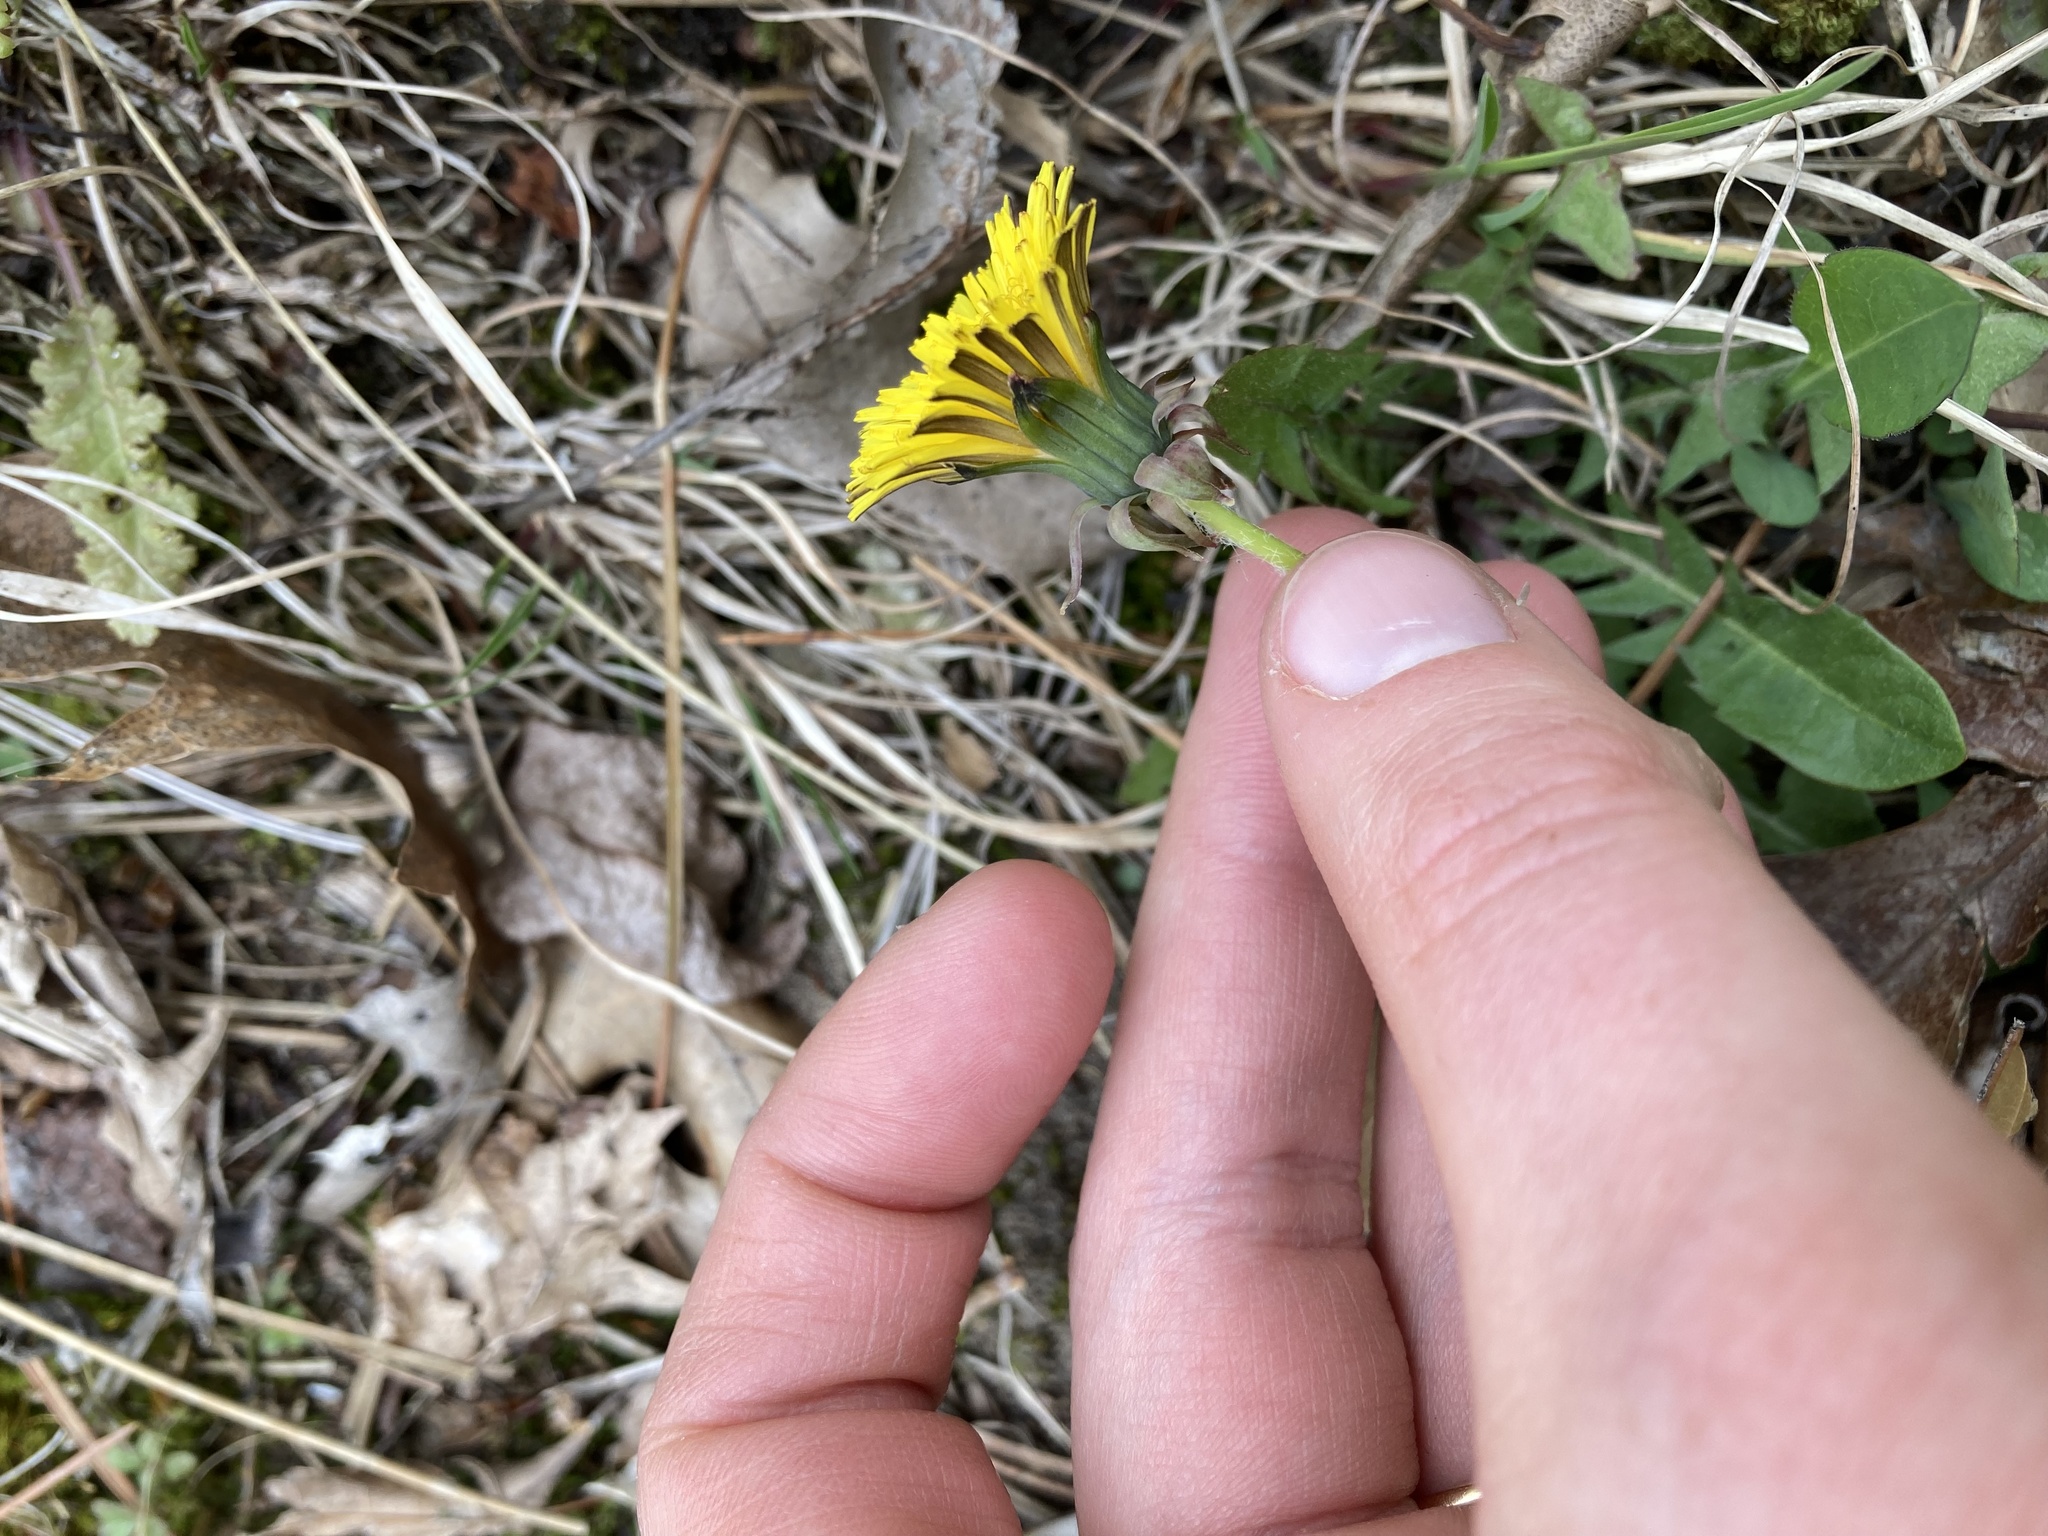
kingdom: Plantae
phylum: Tracheophyta
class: Magnoliopsida
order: Asterales
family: Asteraceae
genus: Taraxacum
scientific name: Taraxacum officinale
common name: Common dandelion
